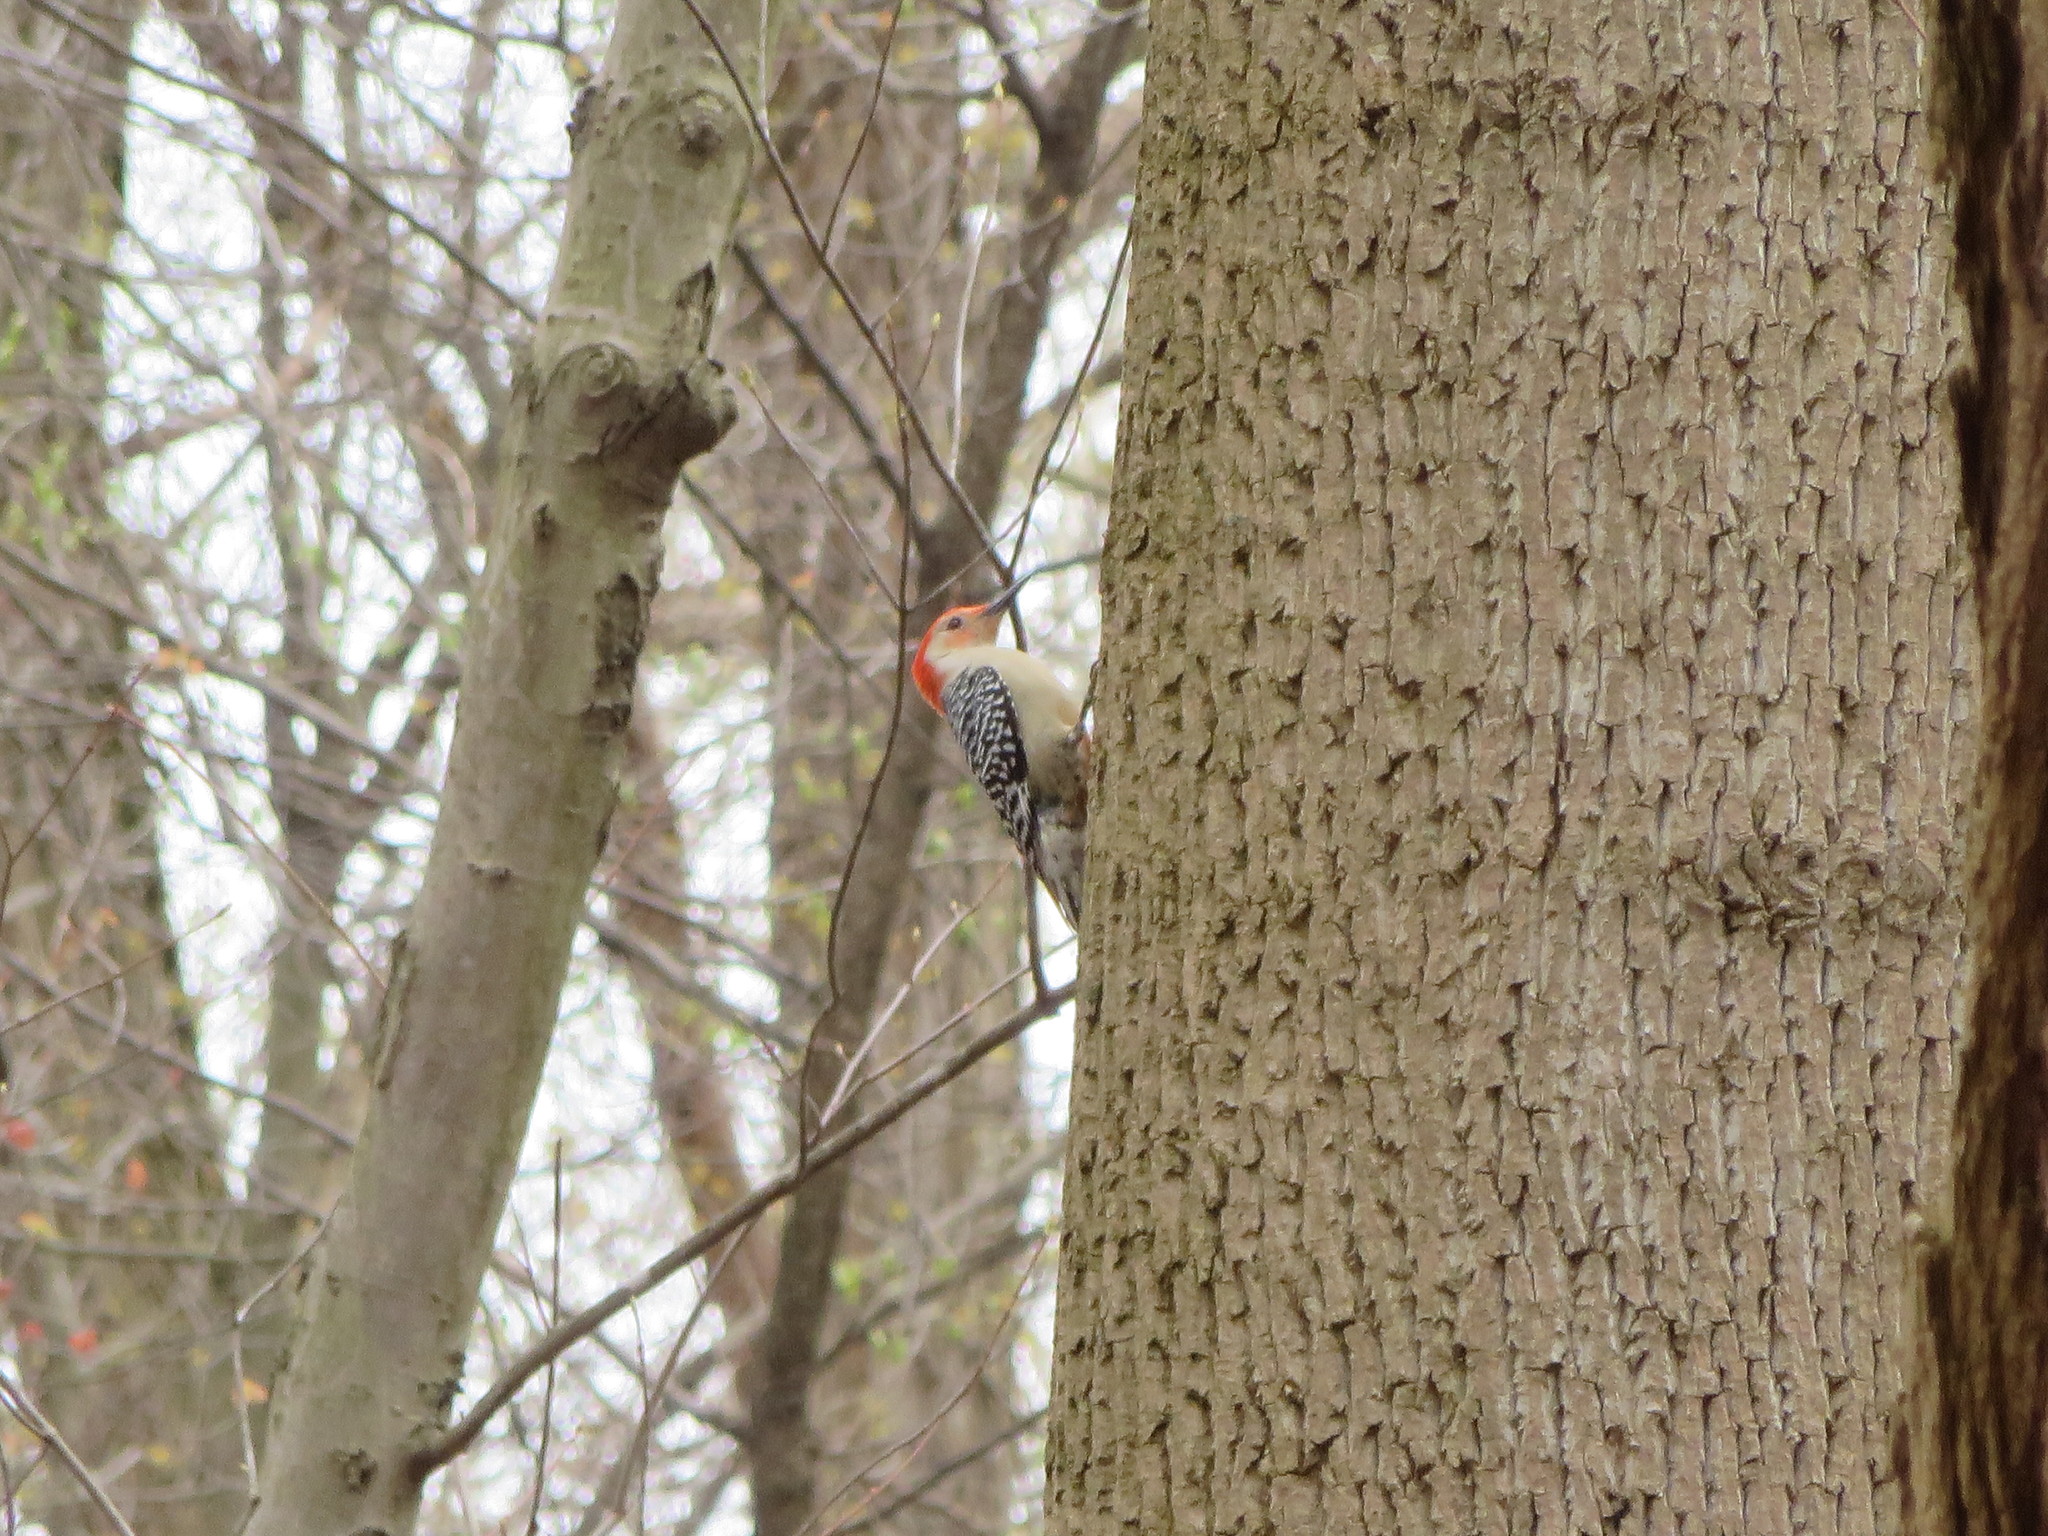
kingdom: Animalia
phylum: Chordata
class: Aves
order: Piciformes
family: Picidae
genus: Melanerpes
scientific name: Melanerpes carolinus
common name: Red-bellied woodpecker
